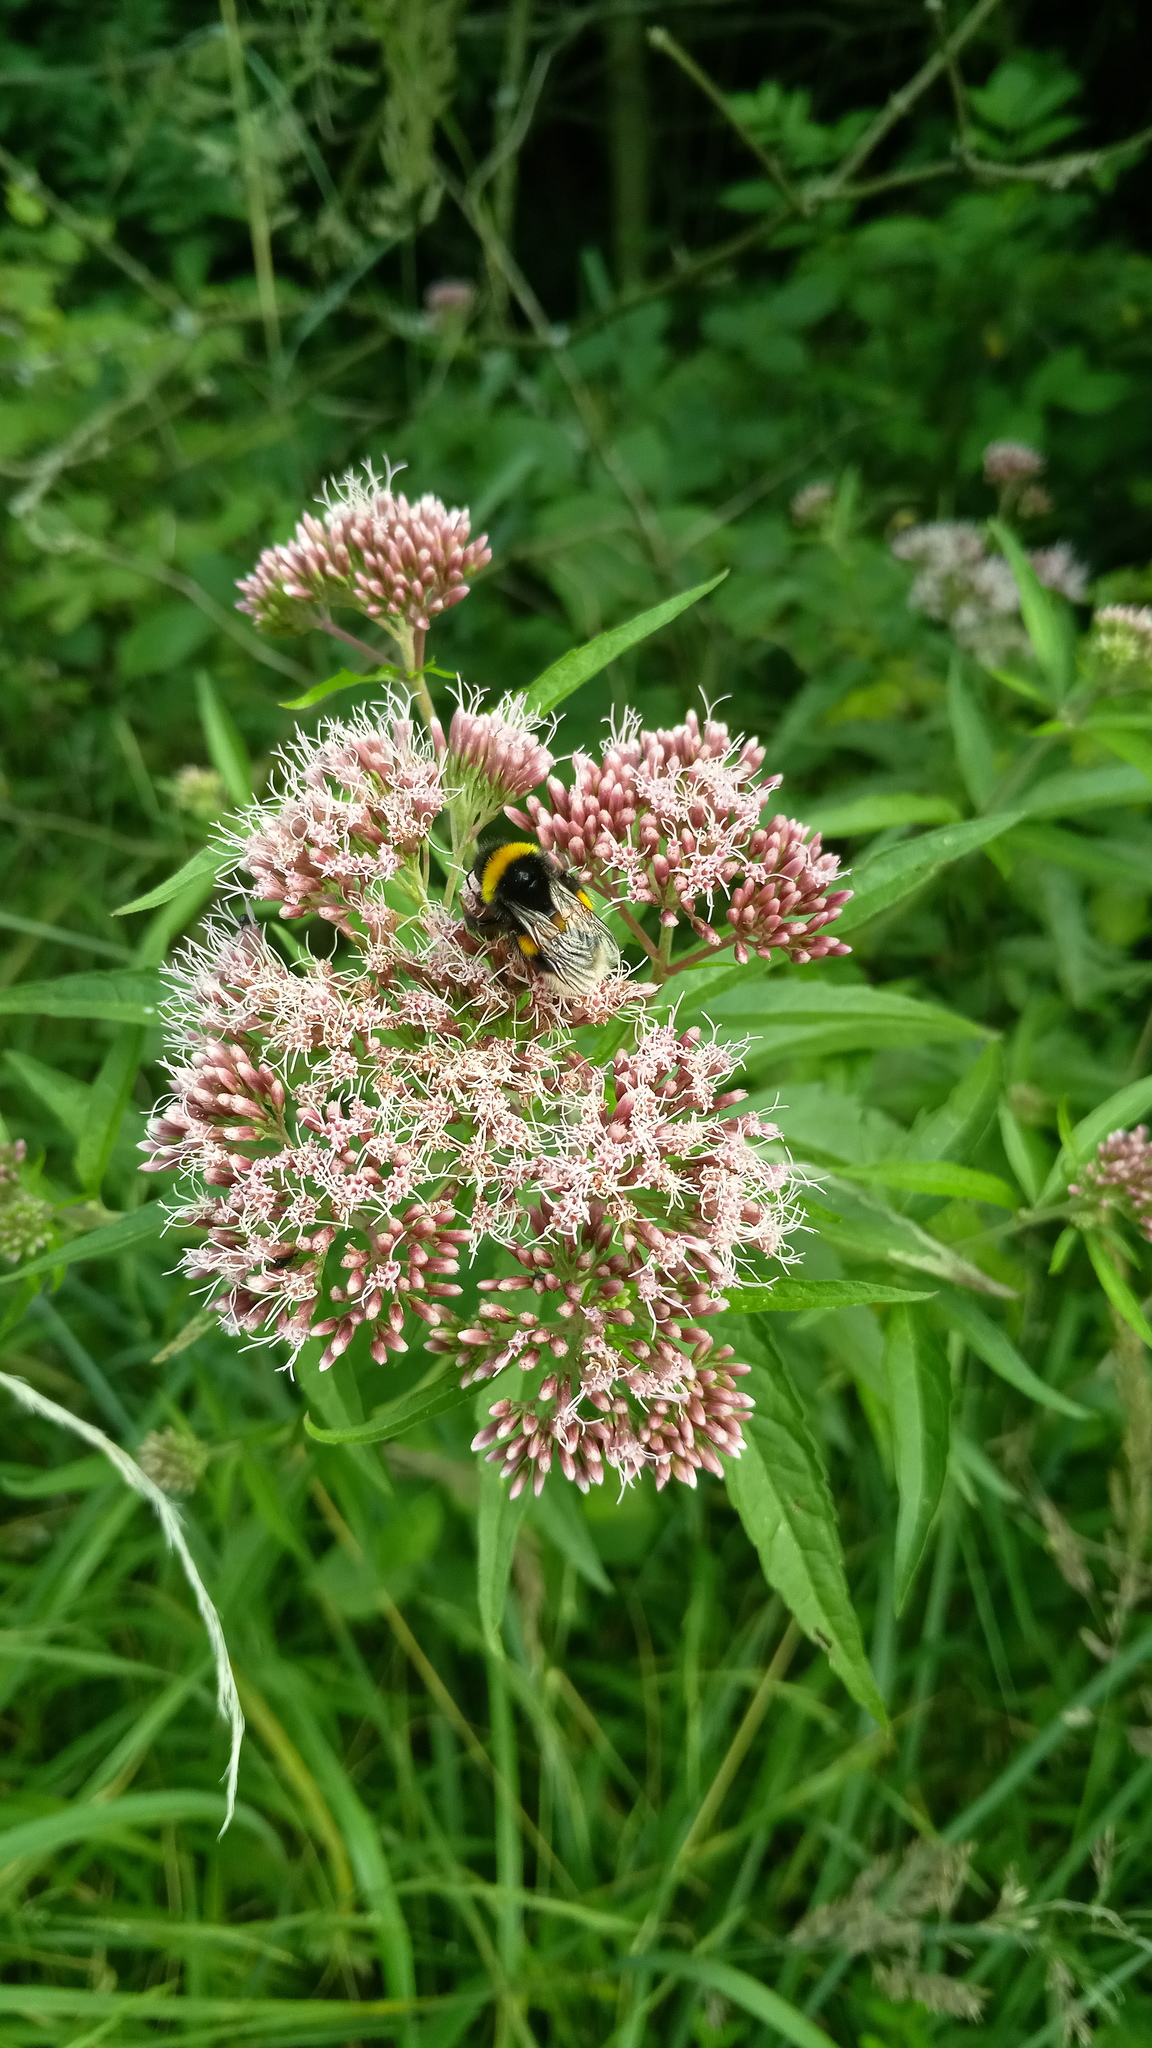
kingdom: Plantae
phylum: Tracheophyta
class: Magnoliopsida
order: Asterales
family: Asteraceae
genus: Eupatorium
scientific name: Eupatorium cannabinum
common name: Hemp-agrimony
